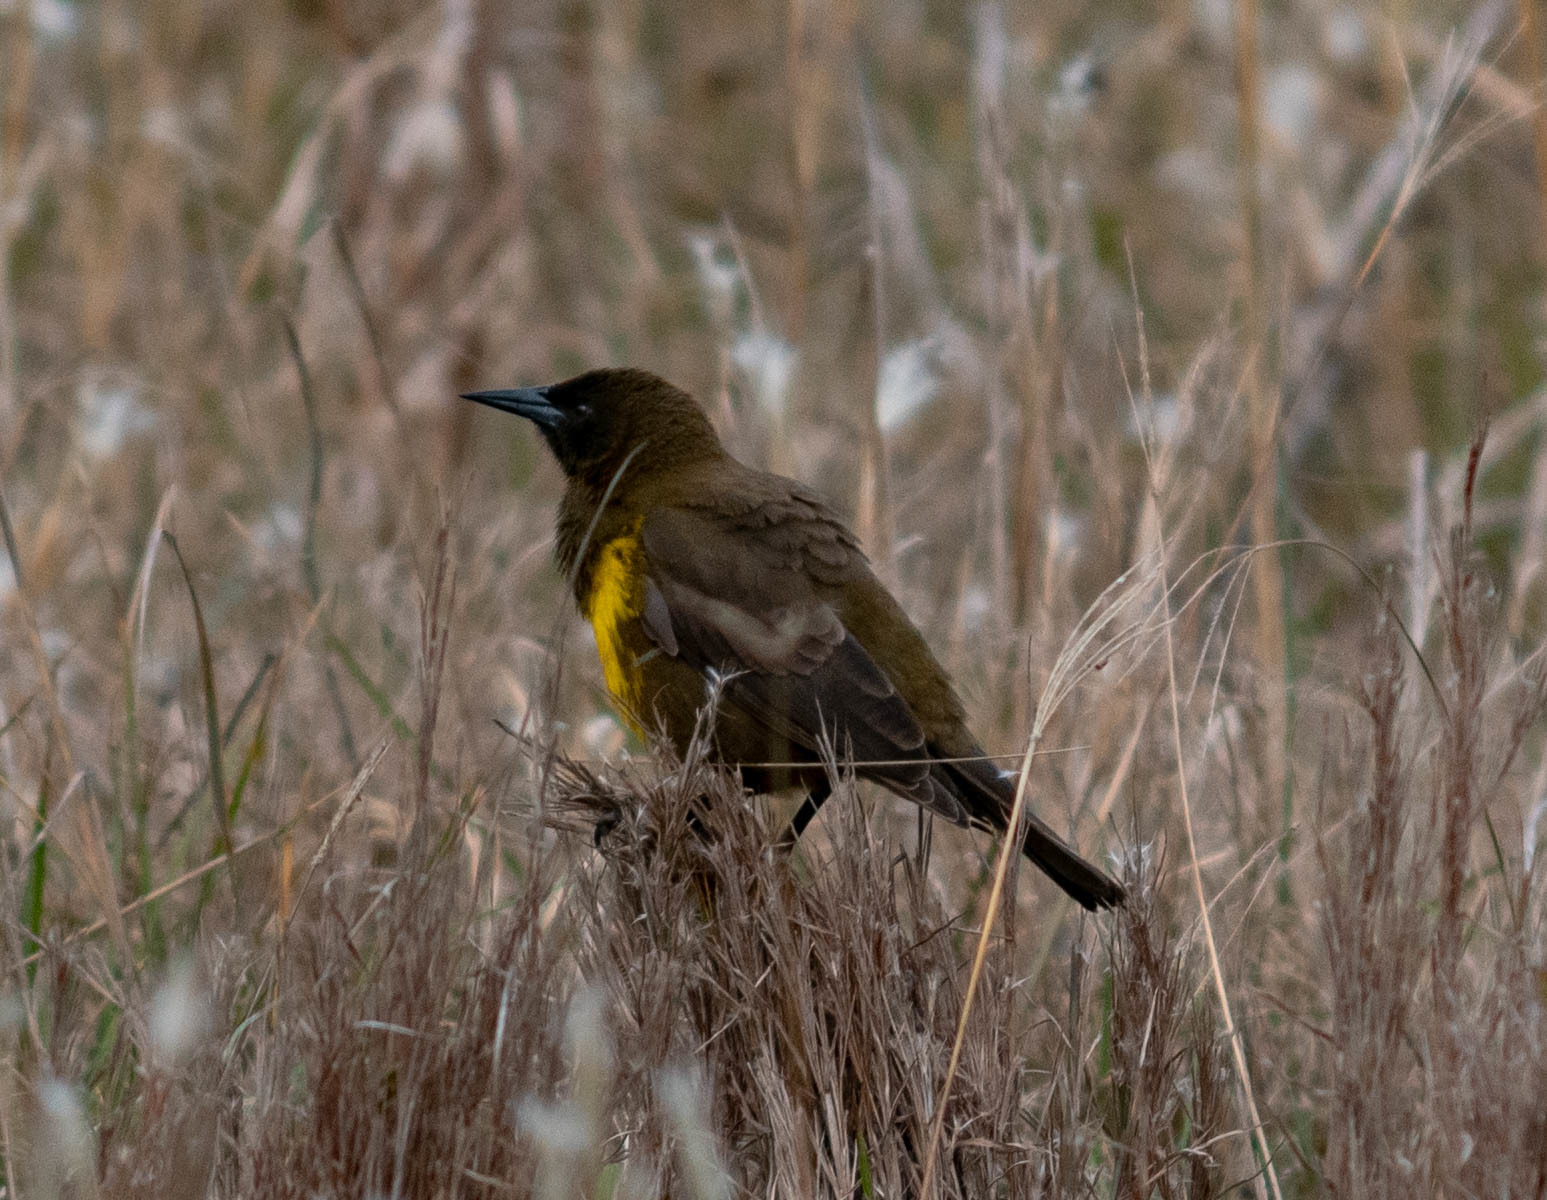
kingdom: Animalia
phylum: Chordata
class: Aves
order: Passeriformes
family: Icteridae
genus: Pseudoleistes
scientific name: Pseudoleistes virescens
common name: Brown-and-yellow marshbird
